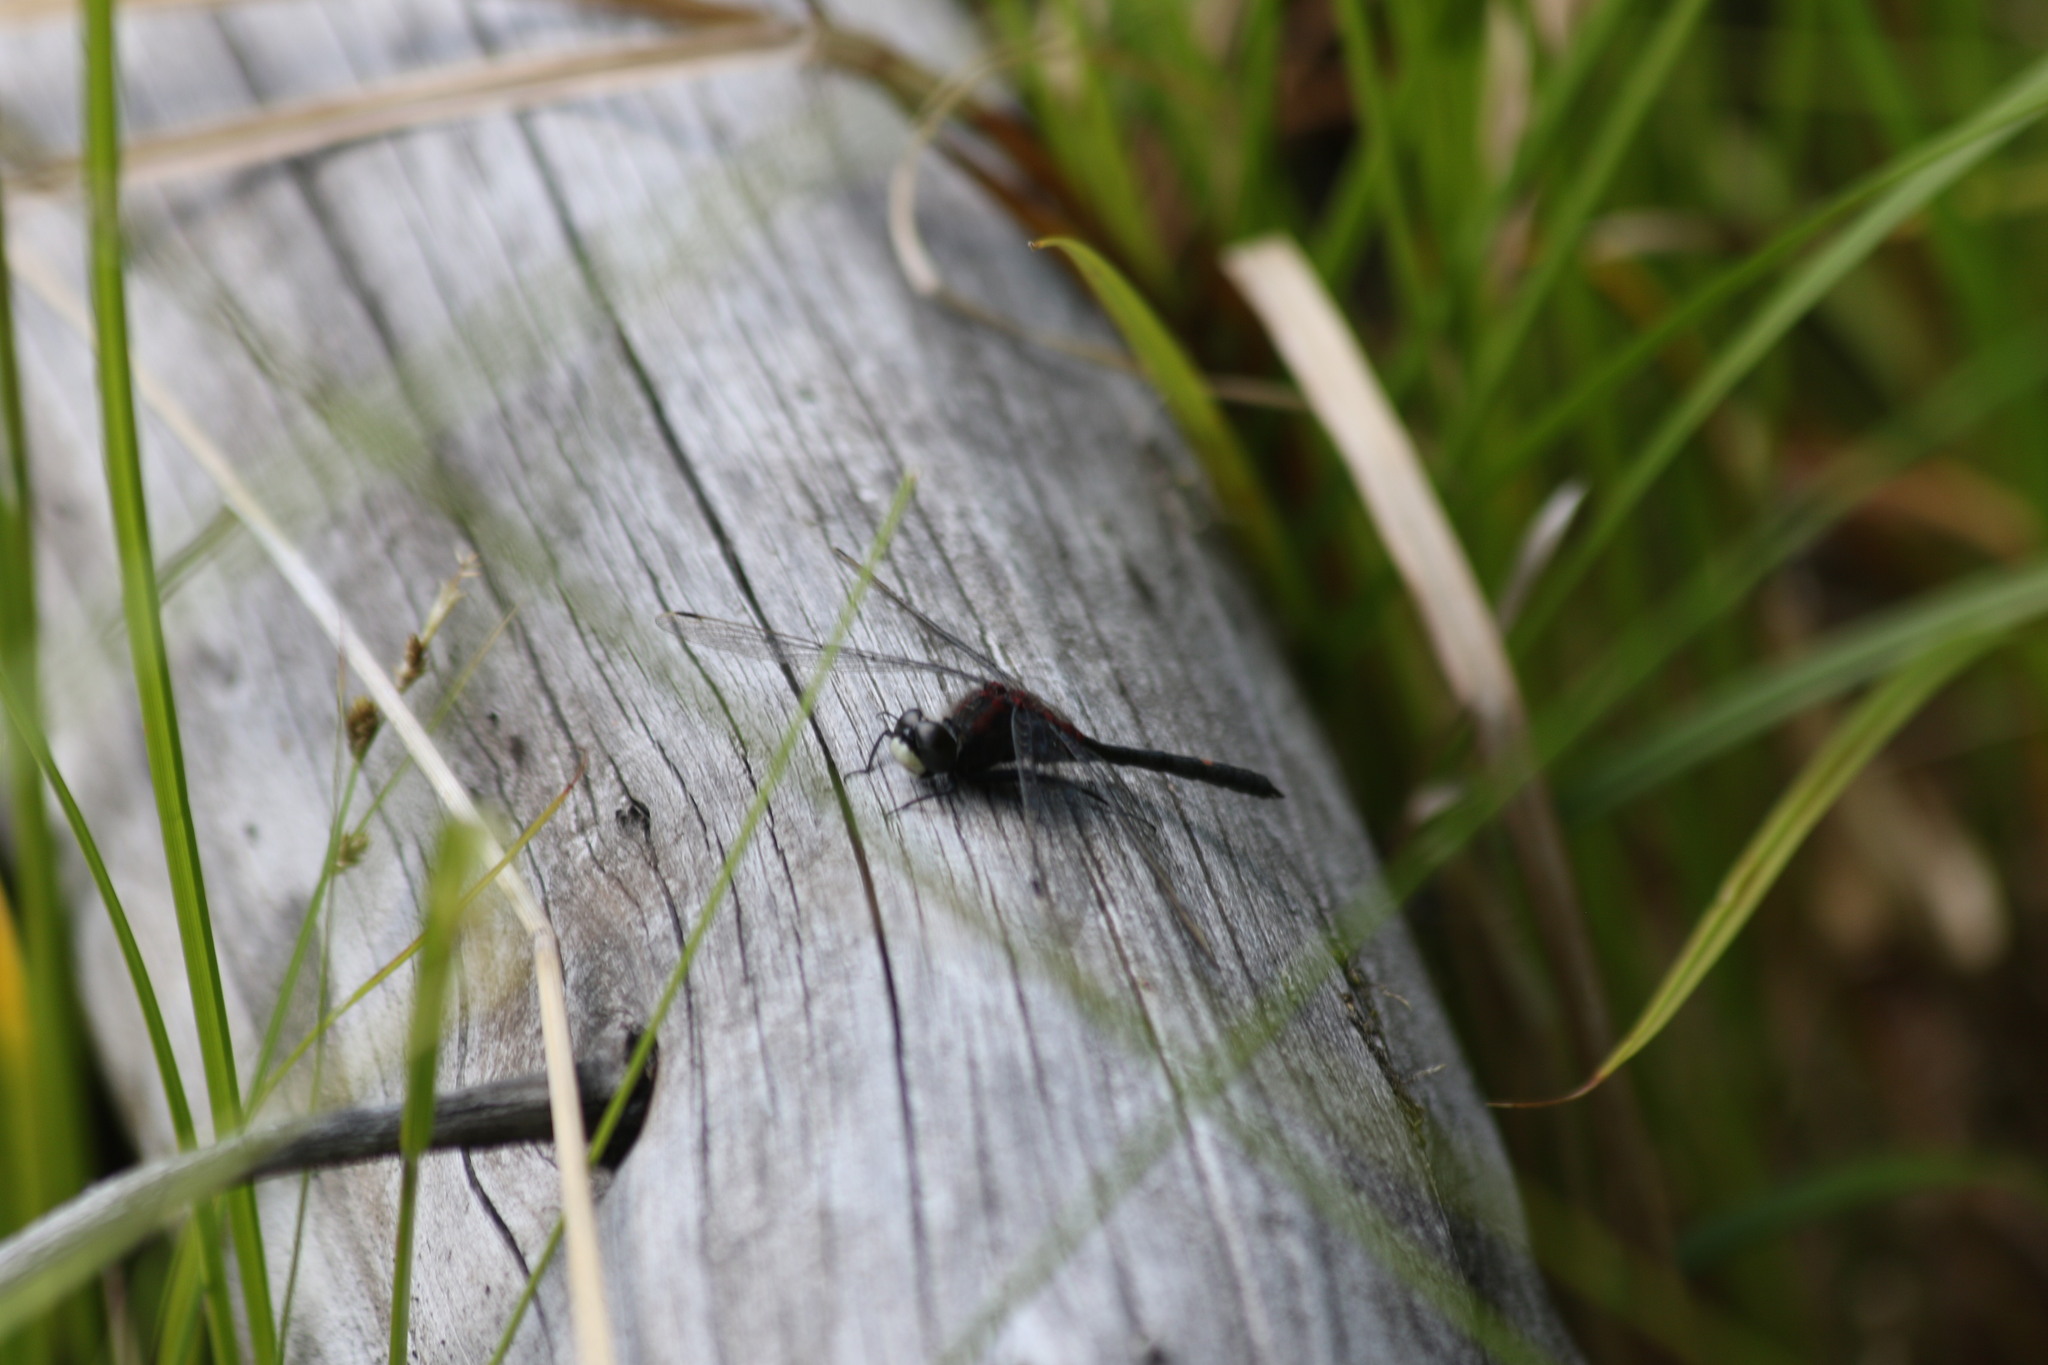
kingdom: Animalia
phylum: Arthropoda
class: Insecta
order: Odonata
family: Libellulidae
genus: Leucorrhinia
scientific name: Leucorrhinia rubicunda
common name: Ruby whiteface
